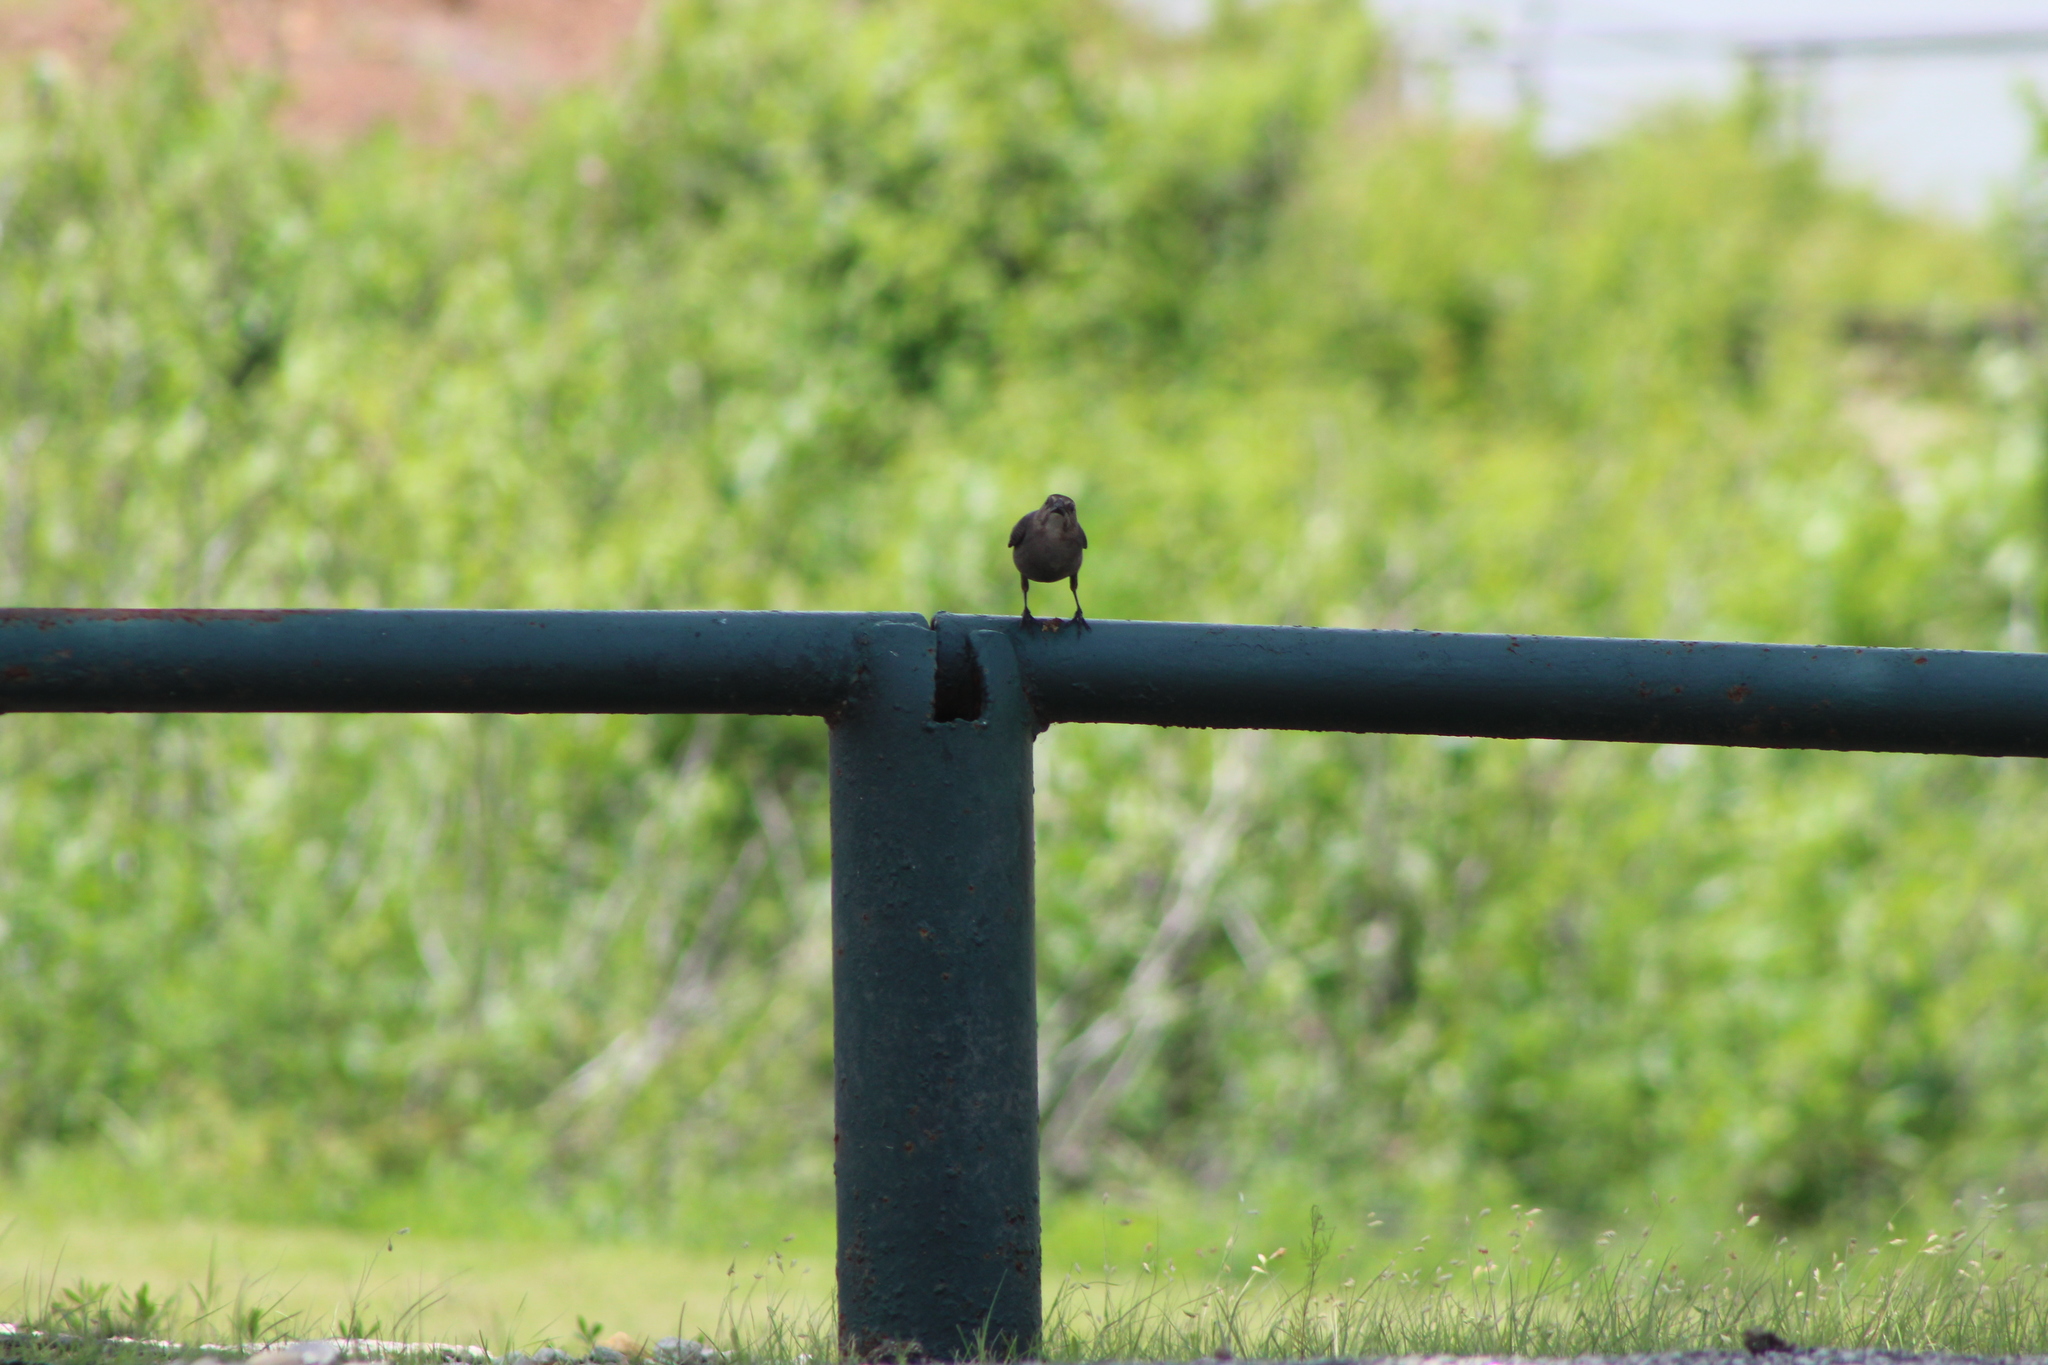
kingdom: Animalia
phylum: Chordata
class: Aves
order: Passeriformes
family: Icteridae
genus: Quiscalus
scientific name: Quiscalus mexicanus
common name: Great-tailed grackle
